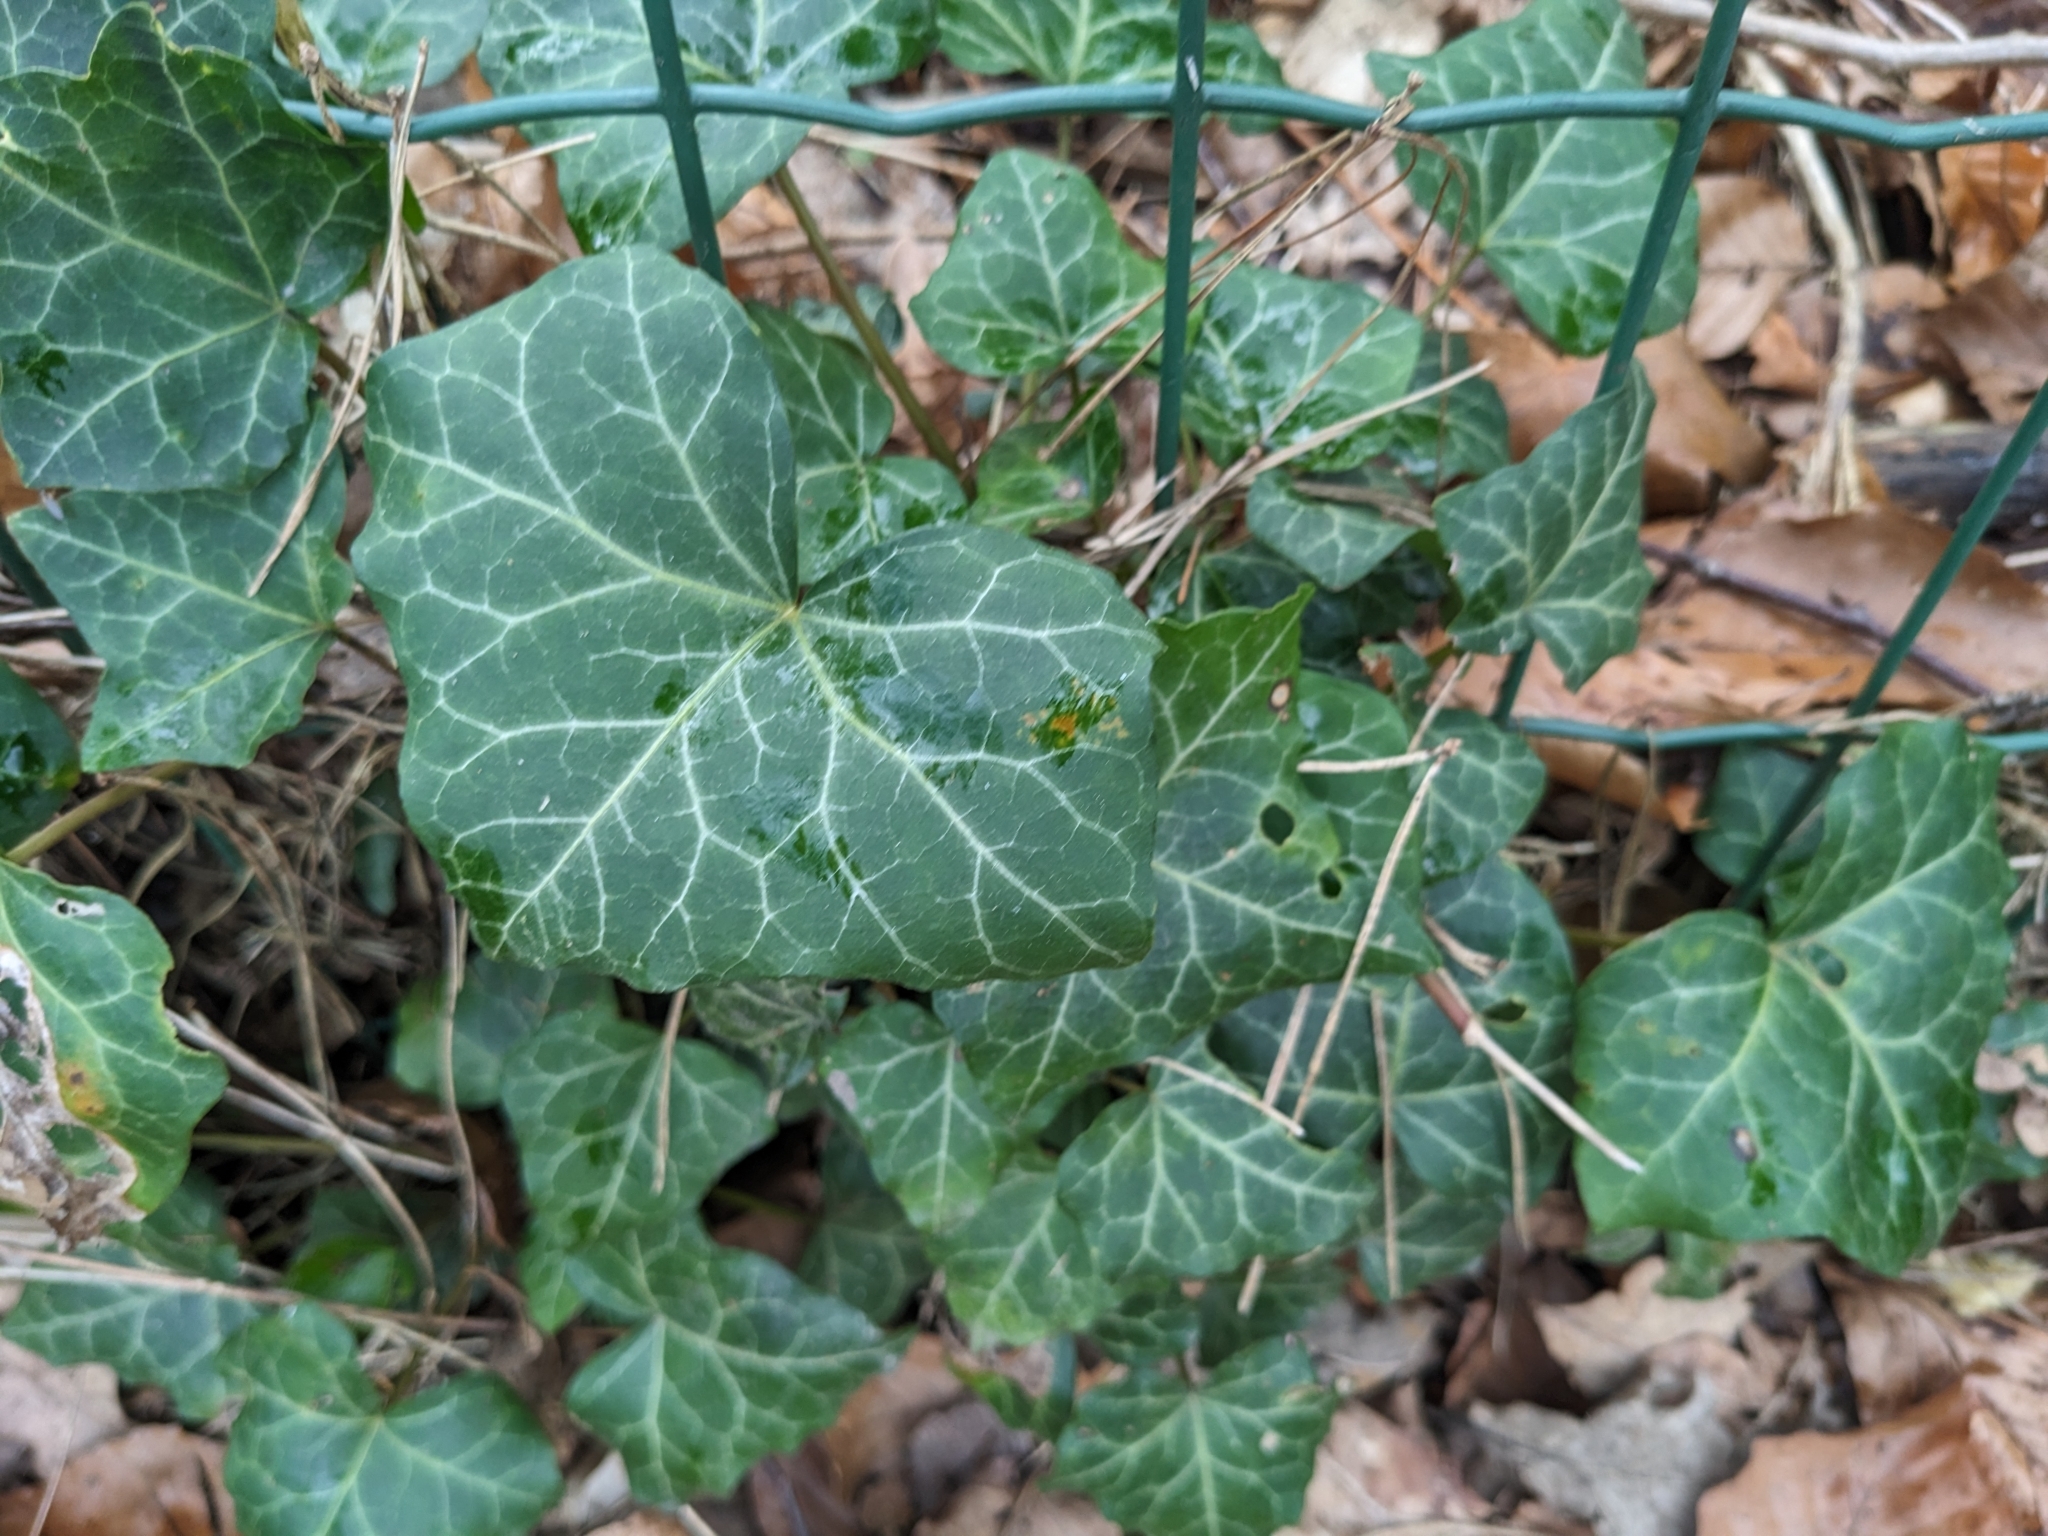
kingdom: Plantae
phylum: Tracheophyta
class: Magnoliopsida
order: Apiales
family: Araliaceae
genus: Hedera
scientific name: Hedera helix
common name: Ivy
